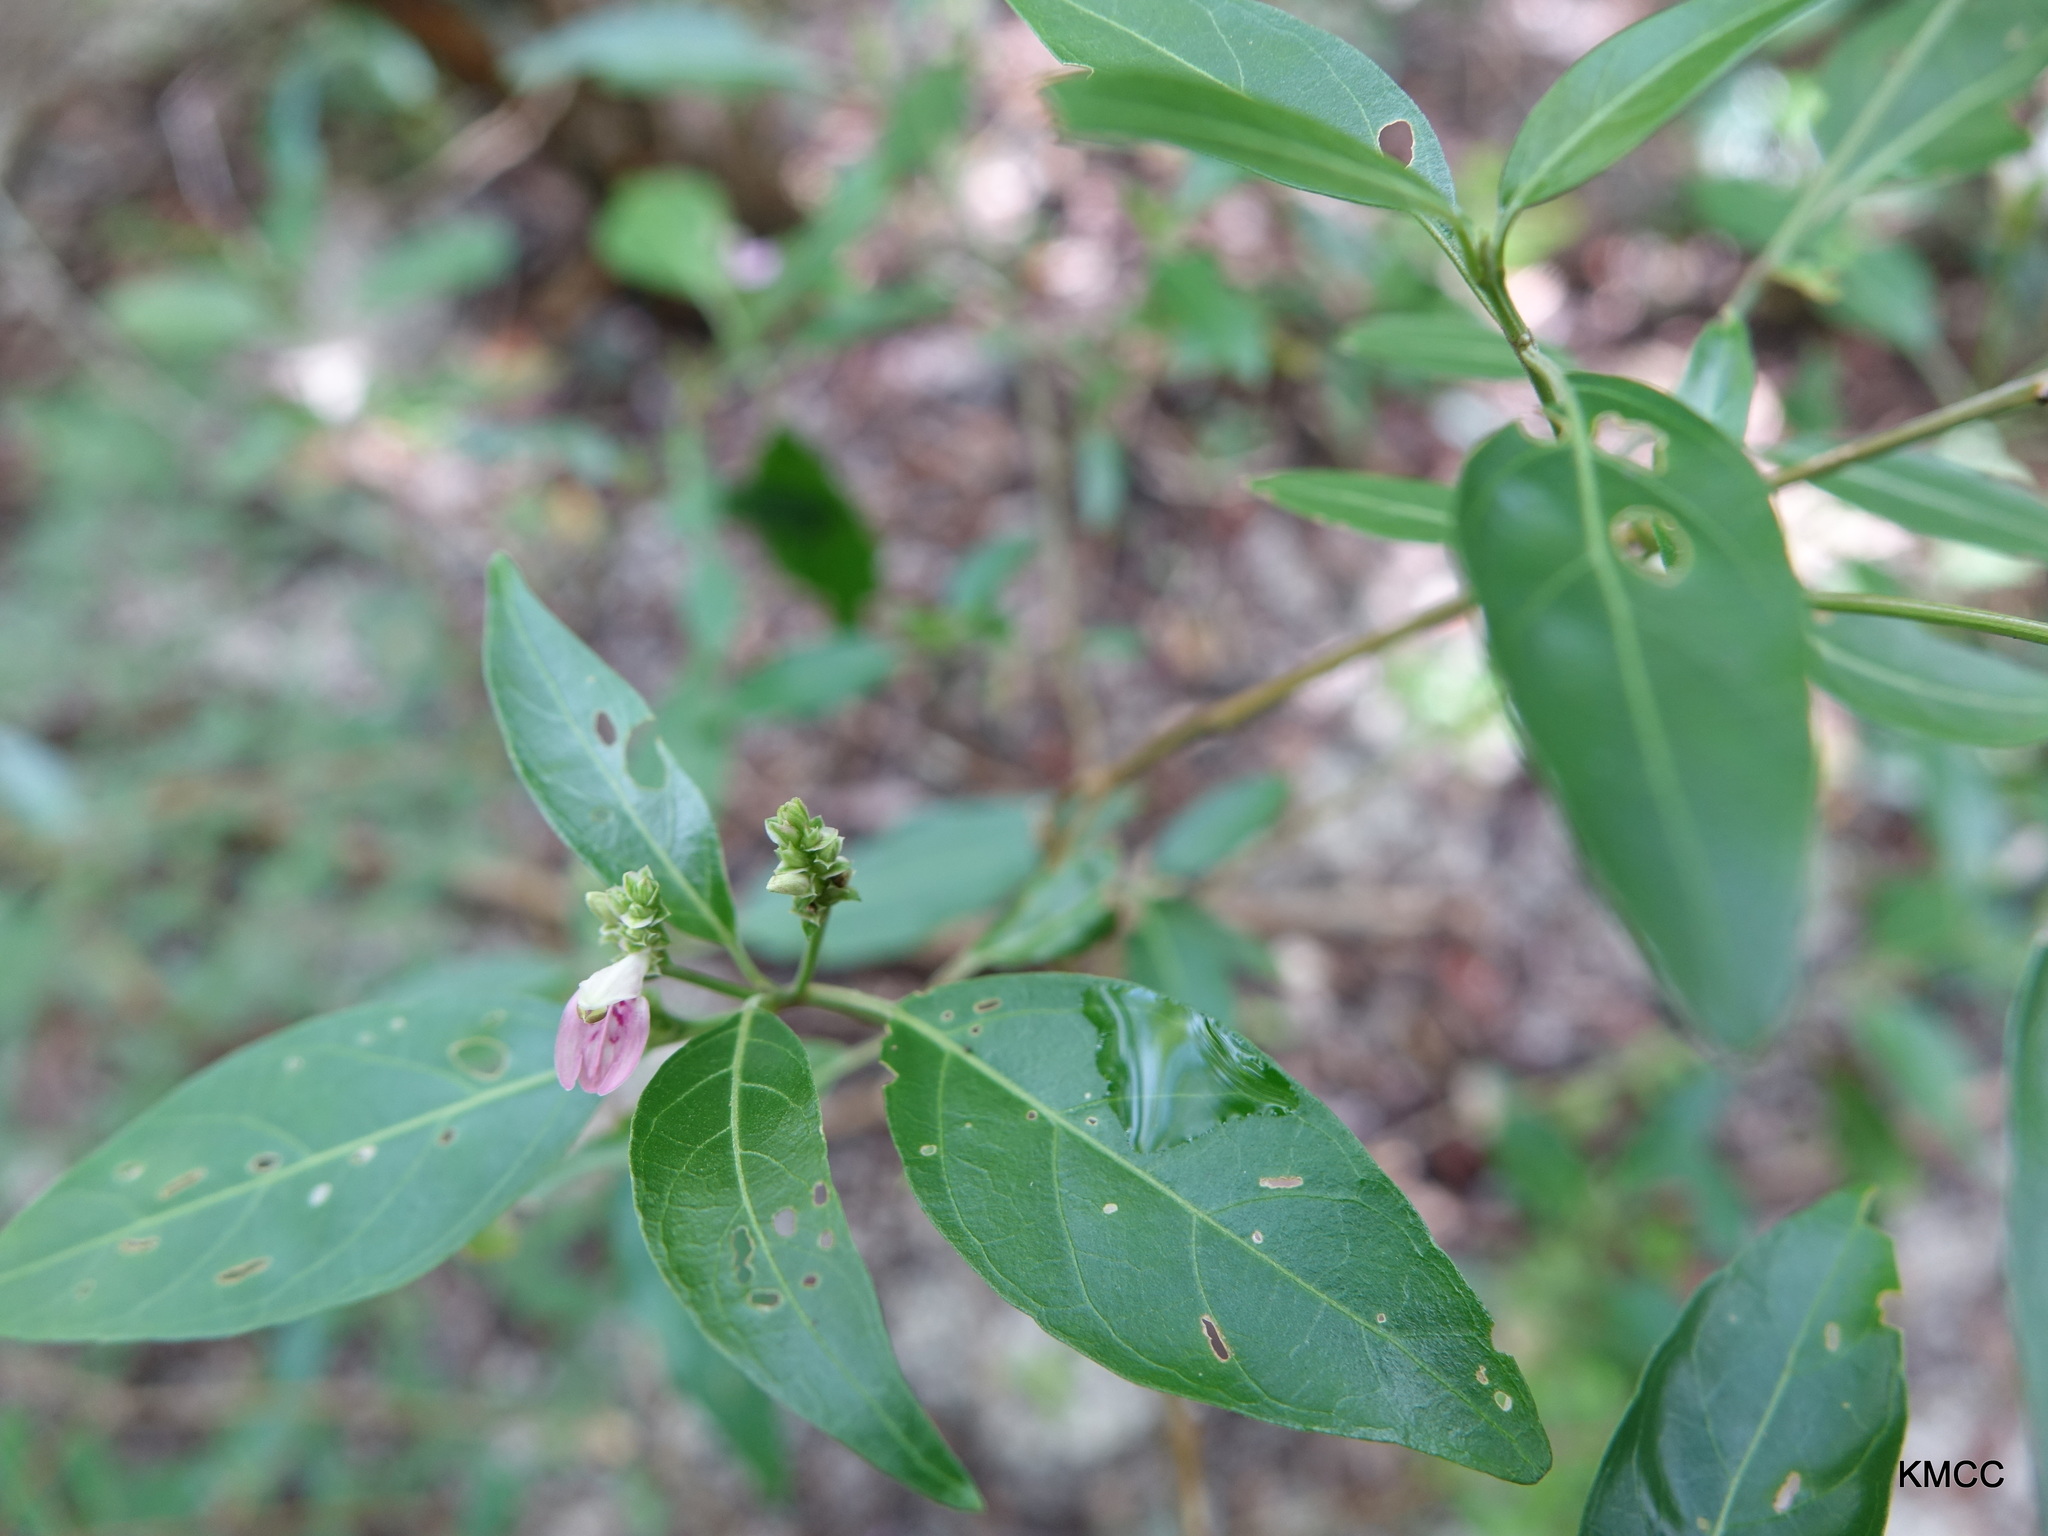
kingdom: Plantae
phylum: Tracheophyta
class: Magnoliopsida
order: Lamiales
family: Acanthaceae
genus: Justicia
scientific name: Justicia striata
